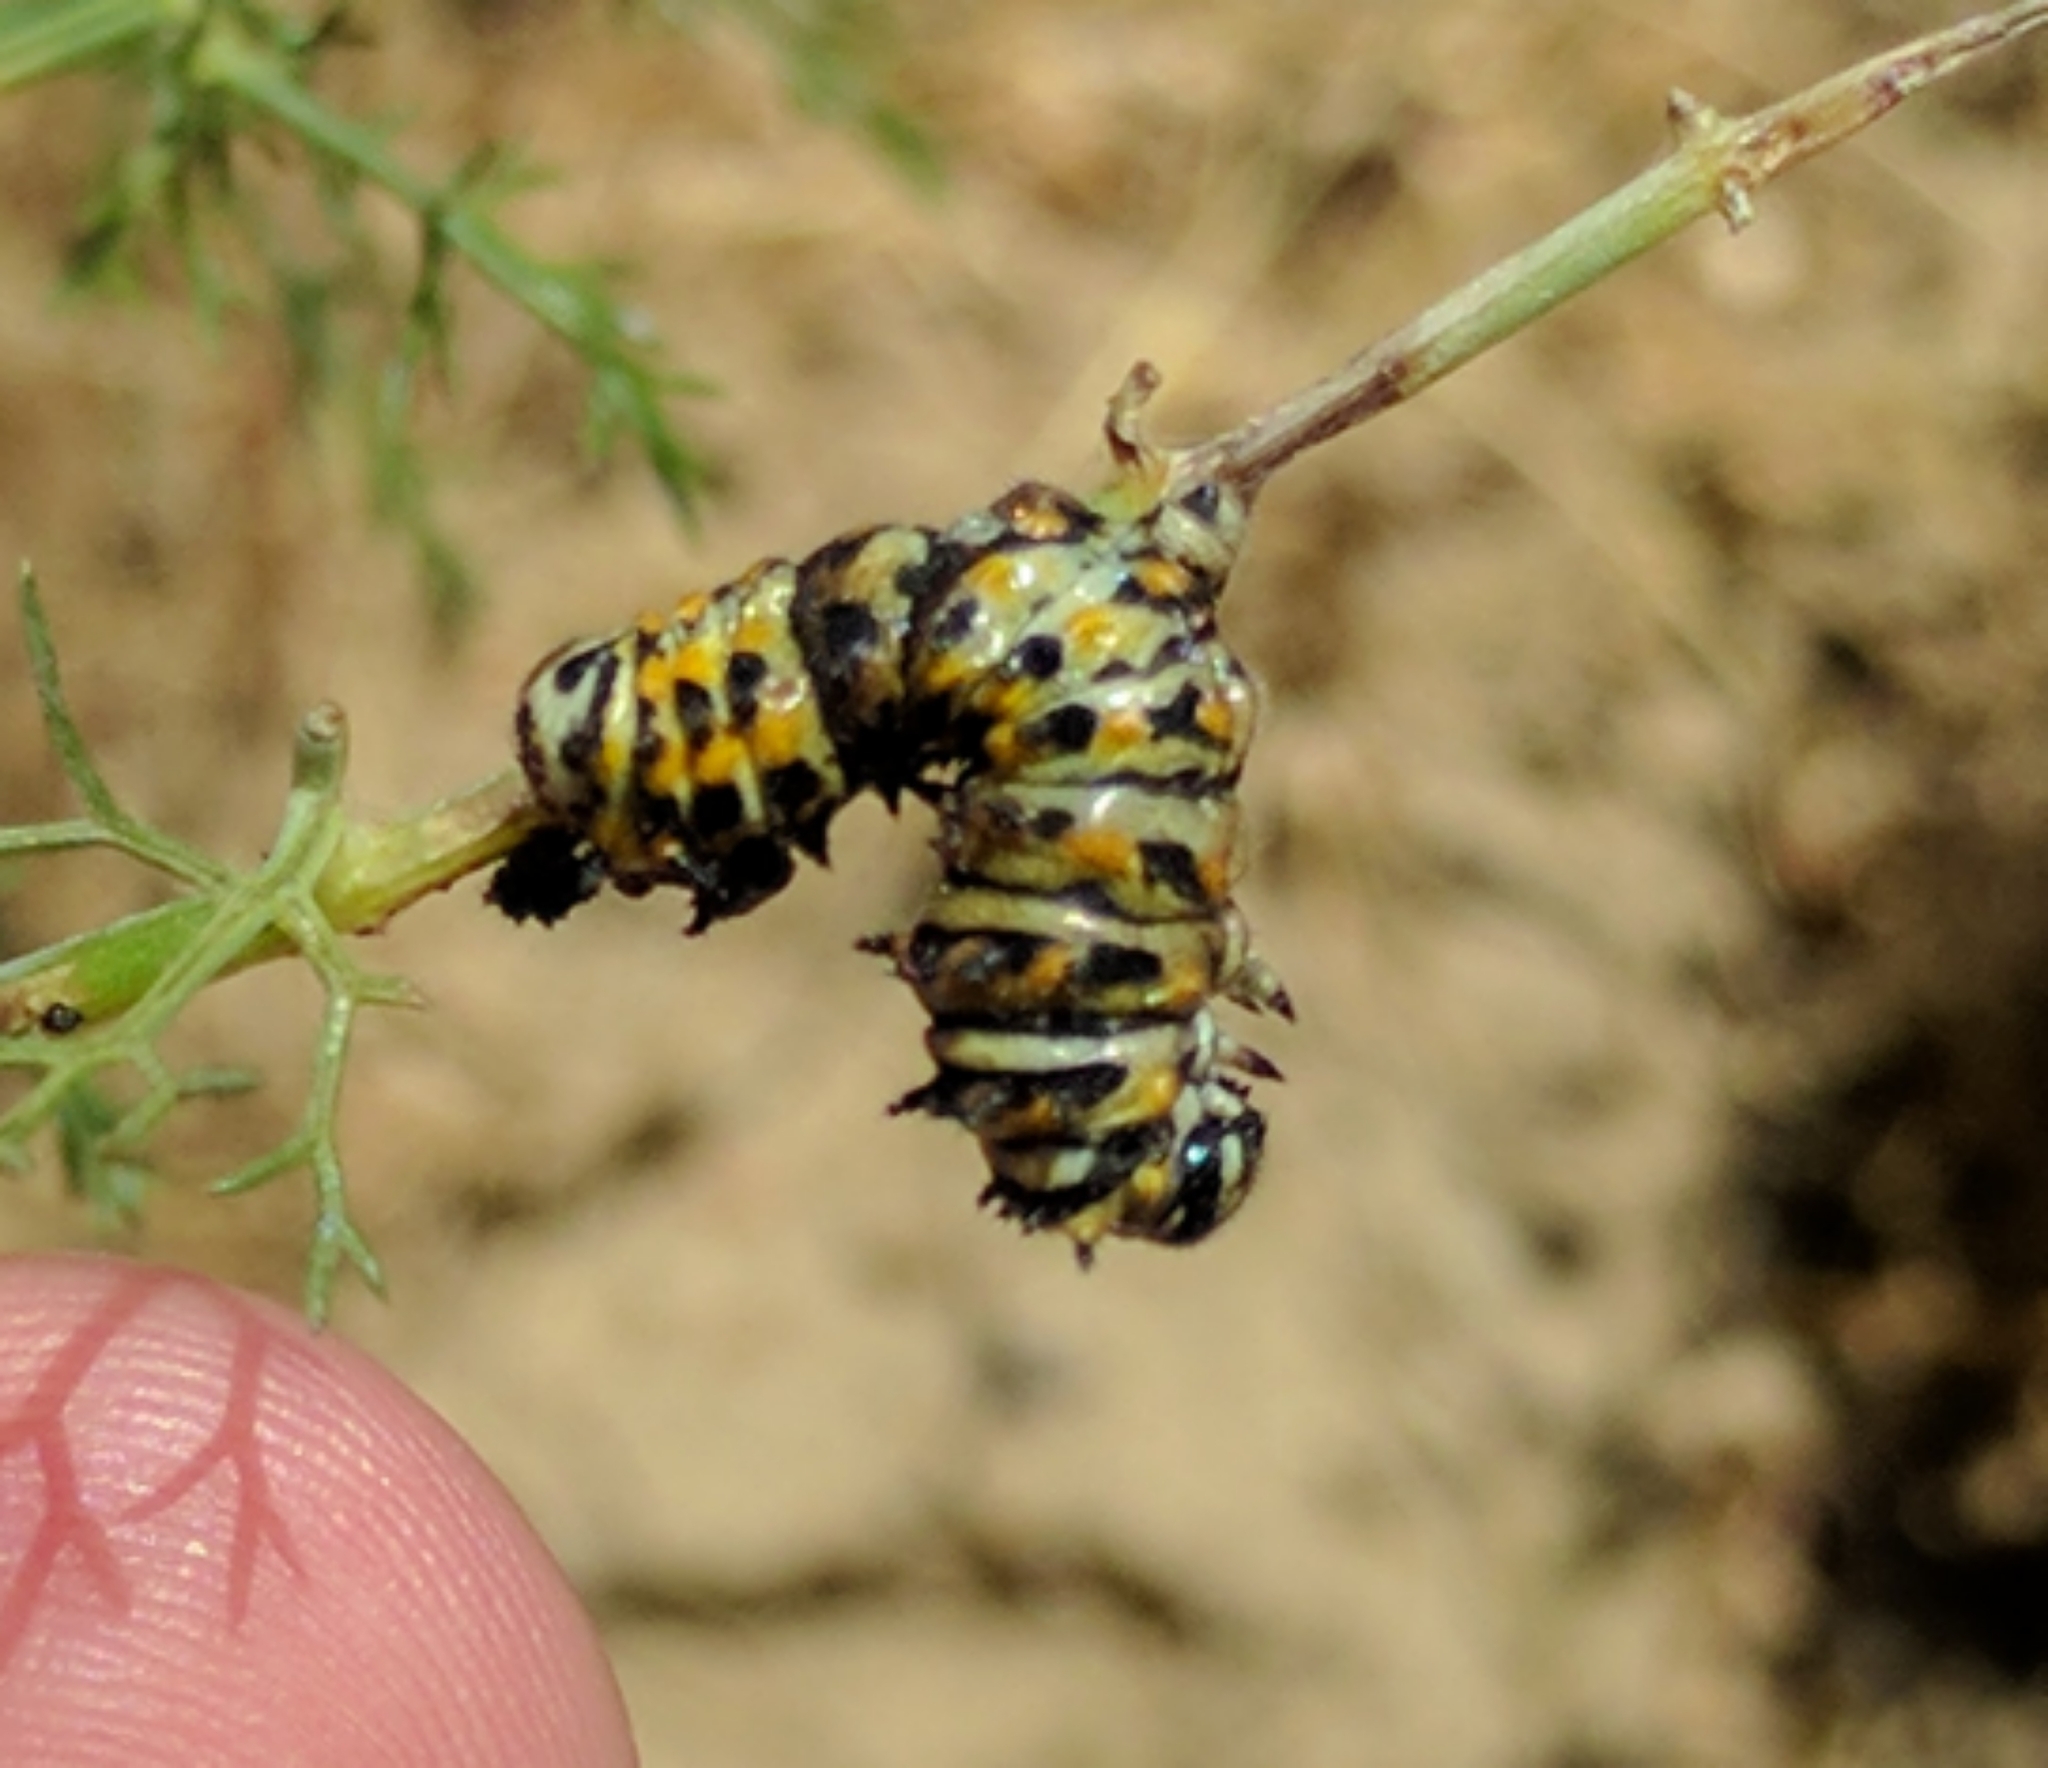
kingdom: Animalia
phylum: Arthropoda
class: Insecta
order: Lepidoptera
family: Papilionidae
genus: Papilio
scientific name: Papilio zelicaon
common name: Anise swallowtail
